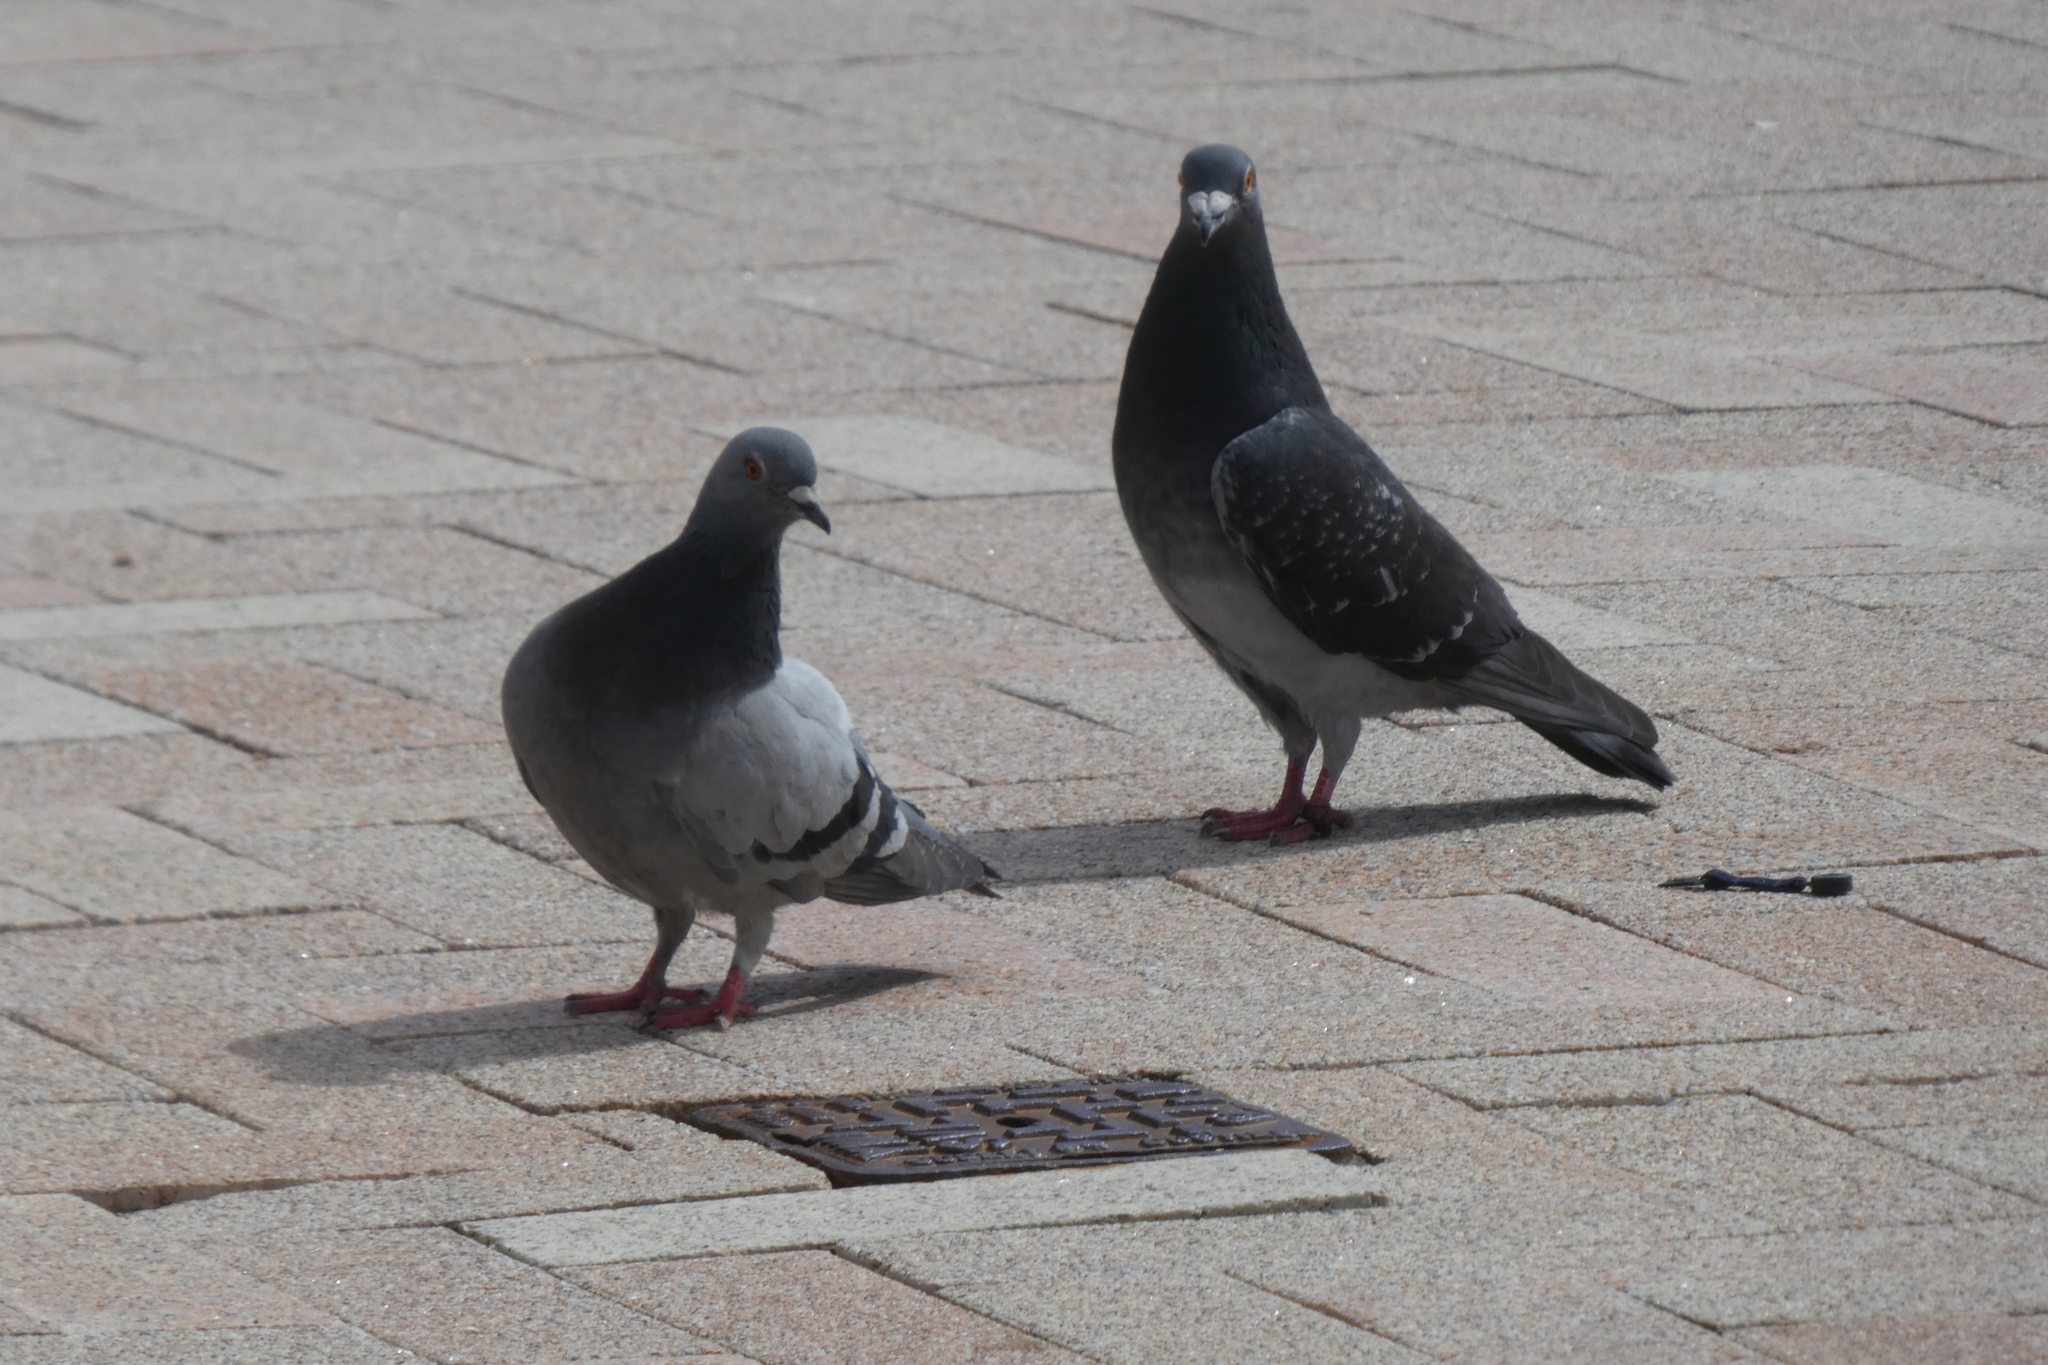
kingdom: Animalia
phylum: Chordata
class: Aves
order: Columbiformes
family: Columbidae
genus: Columba
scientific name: Columba livia
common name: Rock pigeon
